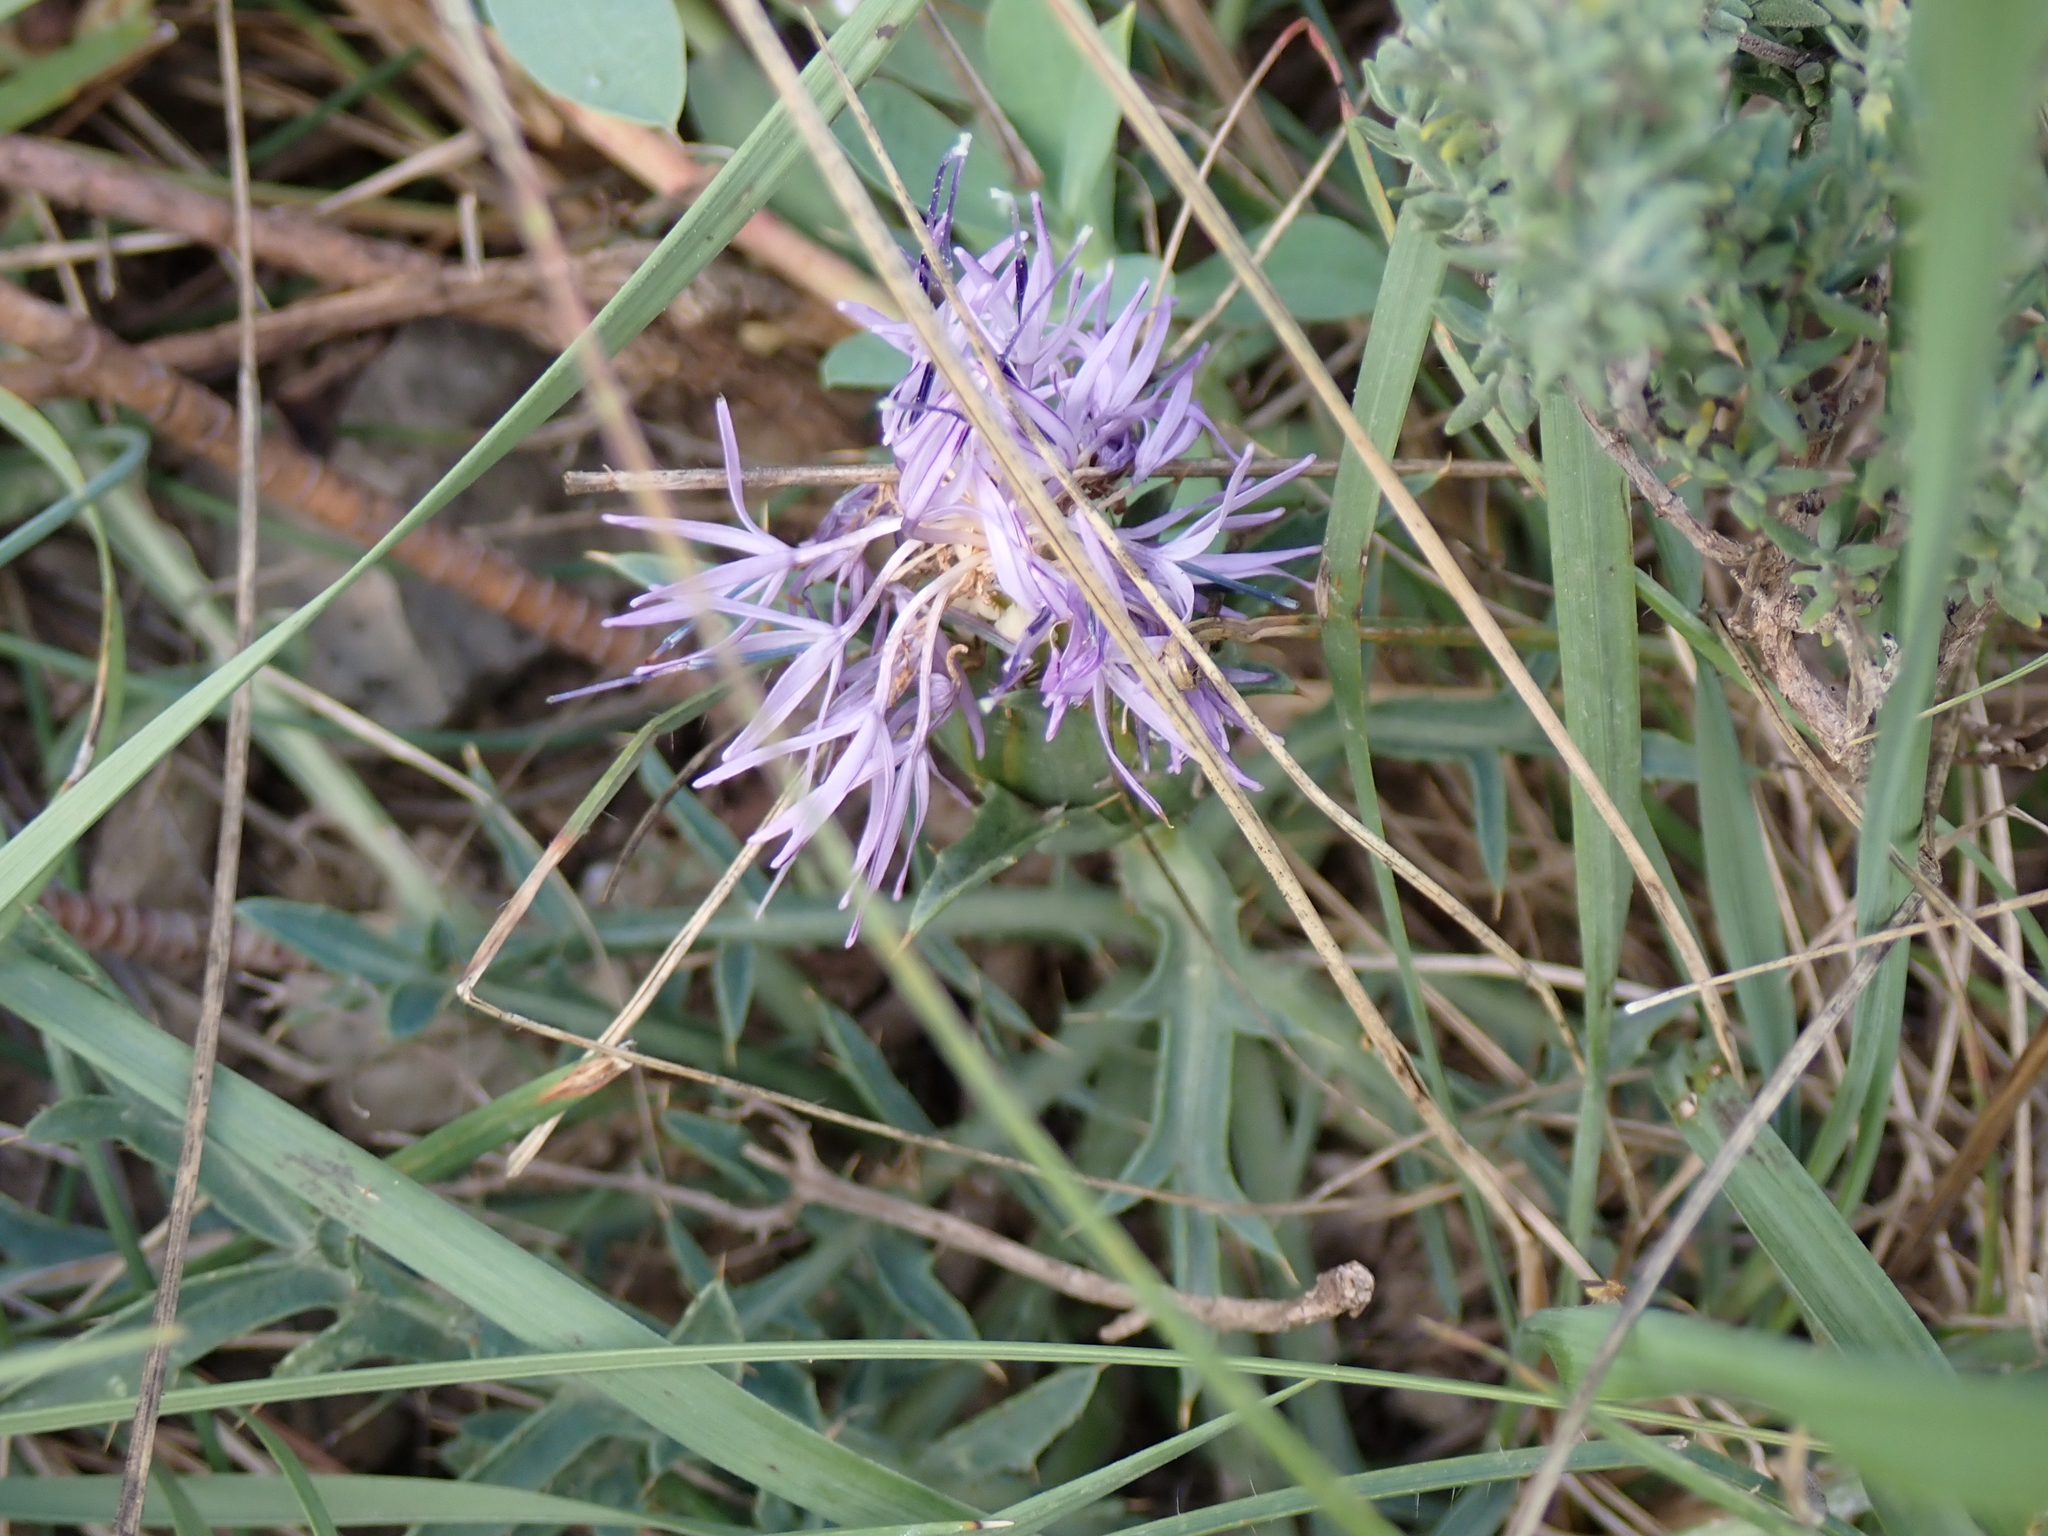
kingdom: Plantae
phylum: Tracheophyta
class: Magnoliopsida
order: Asterales
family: Asteraceae
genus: Carduncellus
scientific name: Carduncellus monspelliensium
